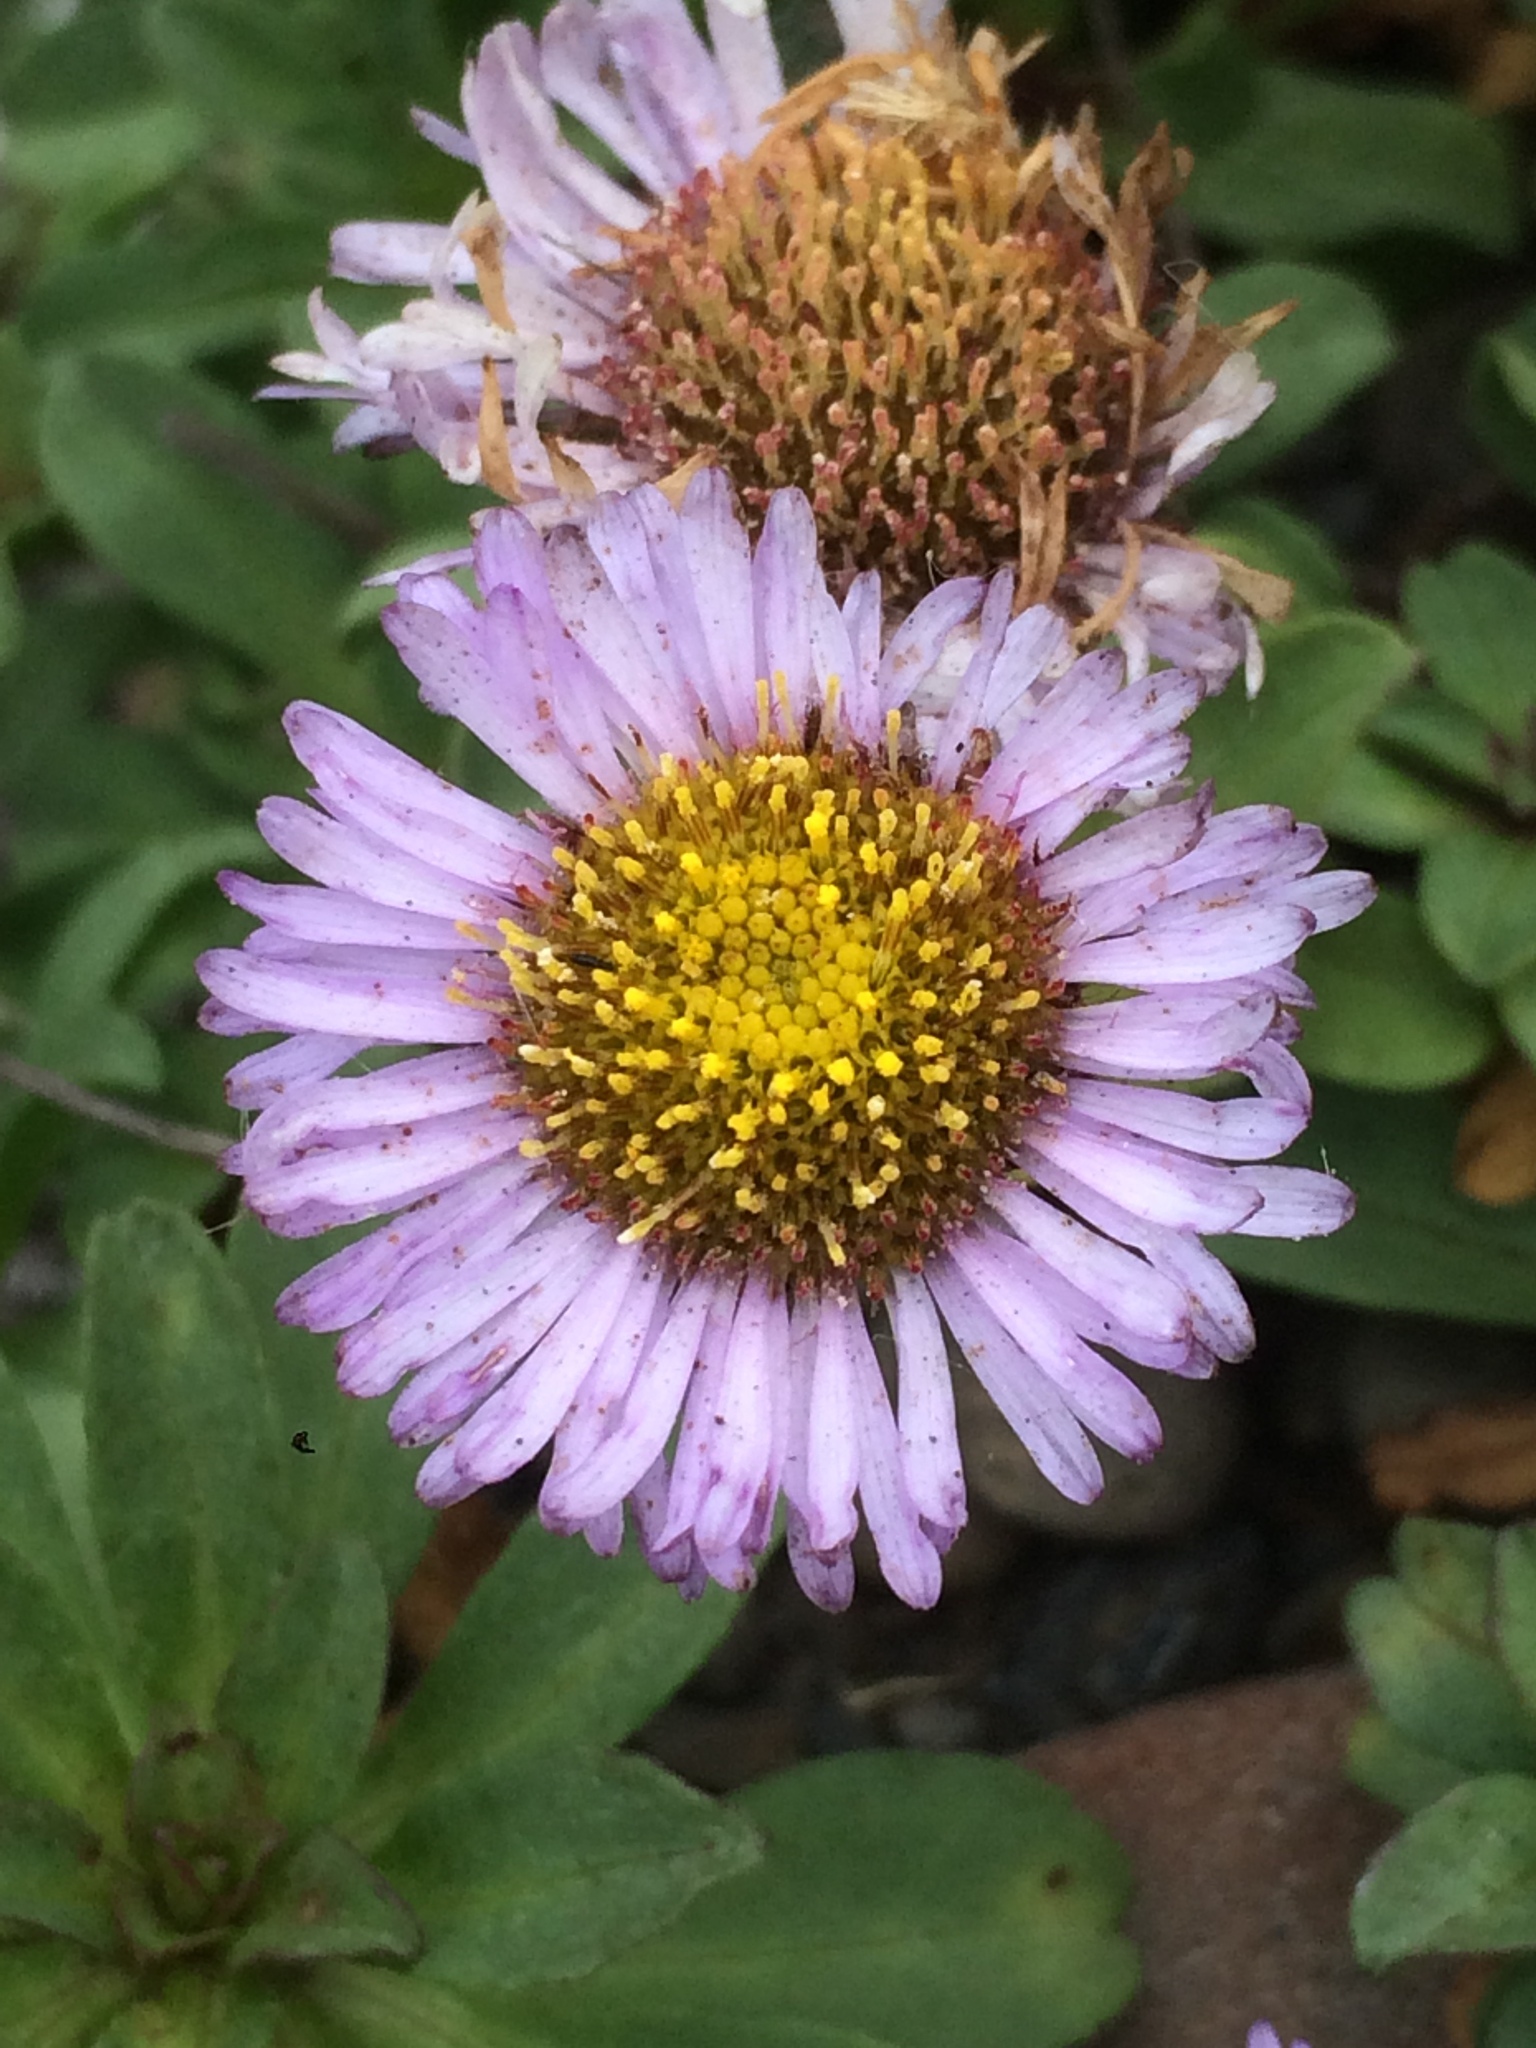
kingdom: Plantae
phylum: Tracheophyta
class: Magnoliopsida
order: Asterales
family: Asteraceae
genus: Erigeron
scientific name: Erigeron glaucus
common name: Seaside daisy
